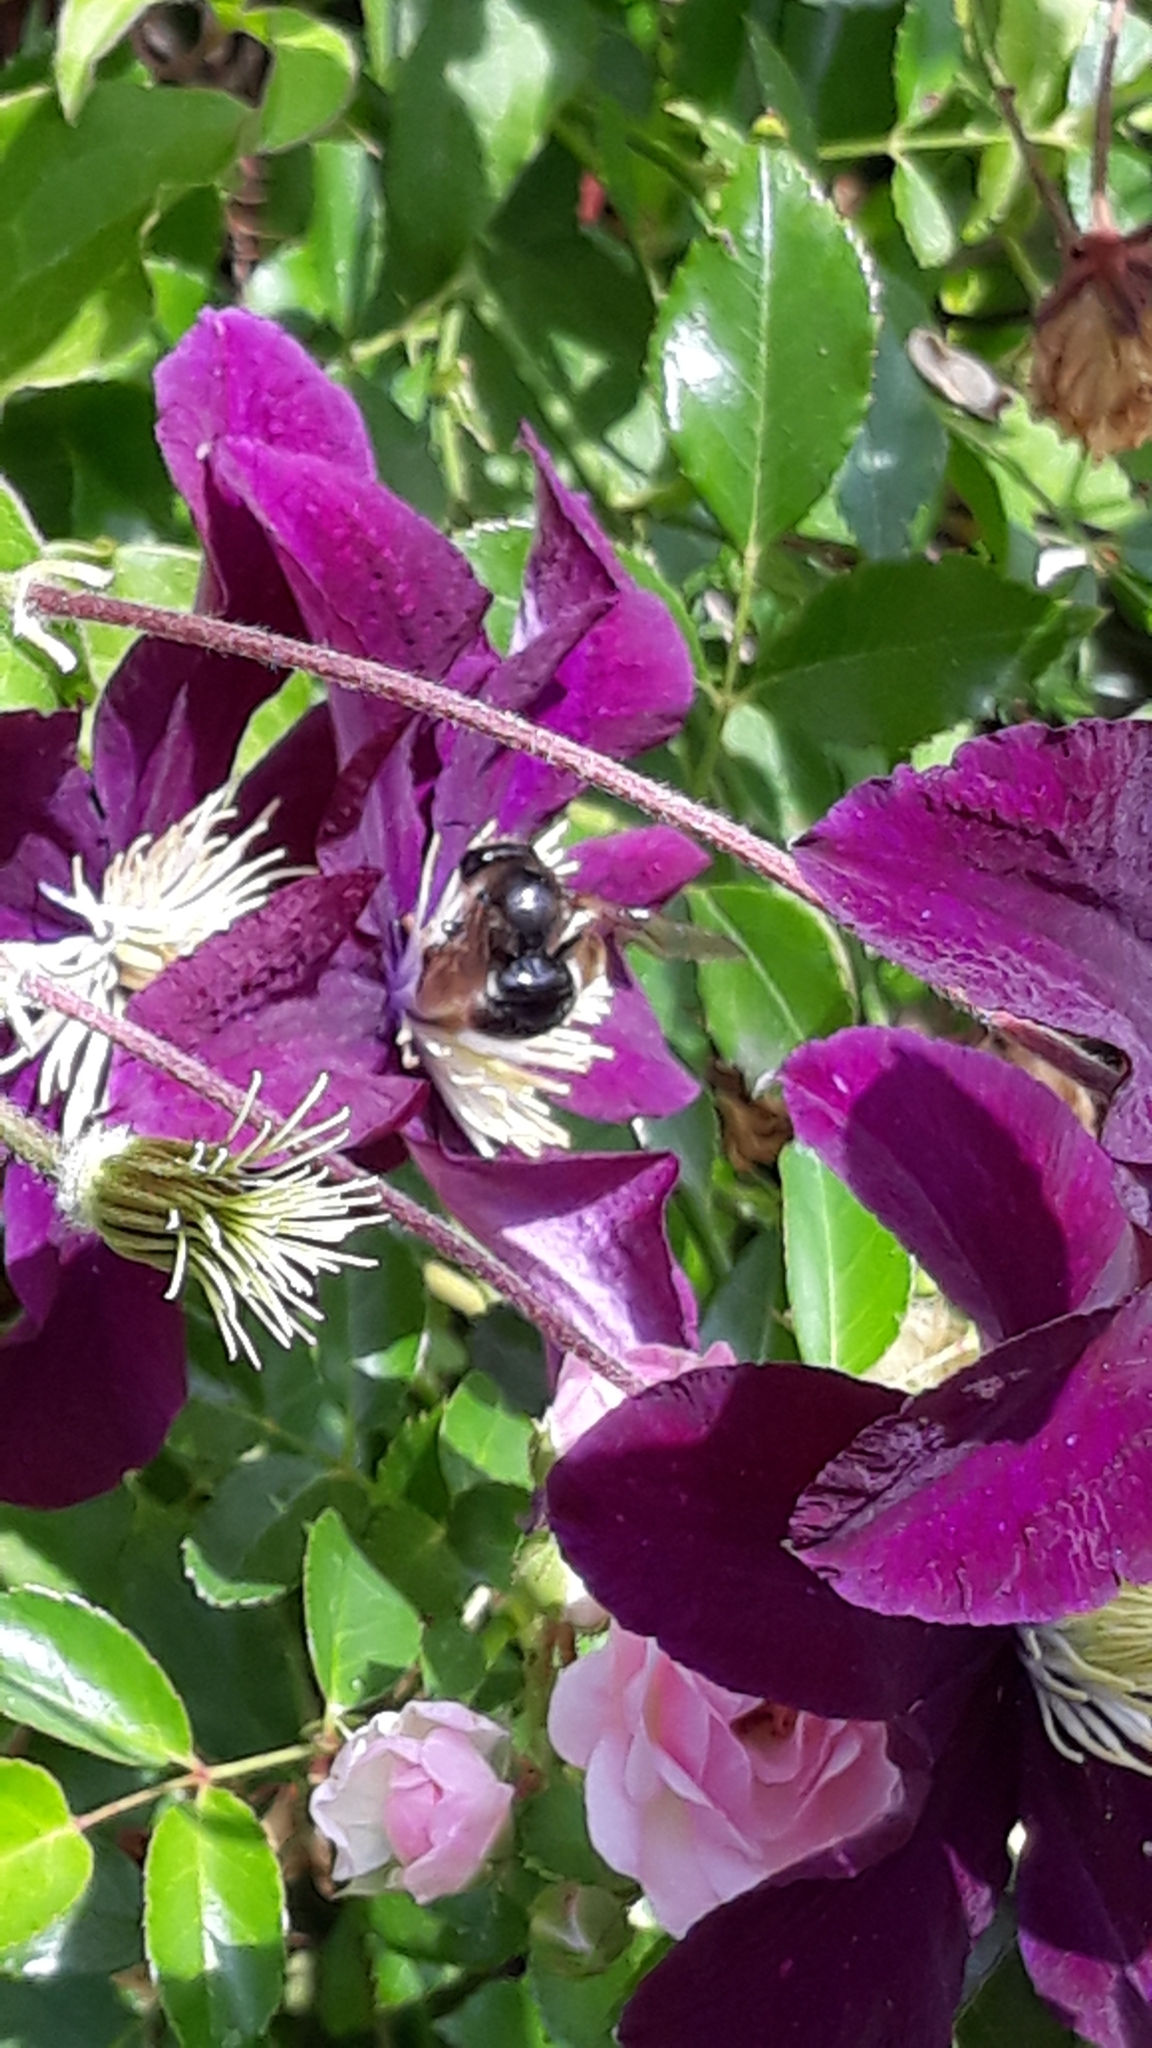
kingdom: Animalia
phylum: Arthropoda
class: Insecta
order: Hymenoptera
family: Apidae
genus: Xylocopa
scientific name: Xylocopa cantabrita
